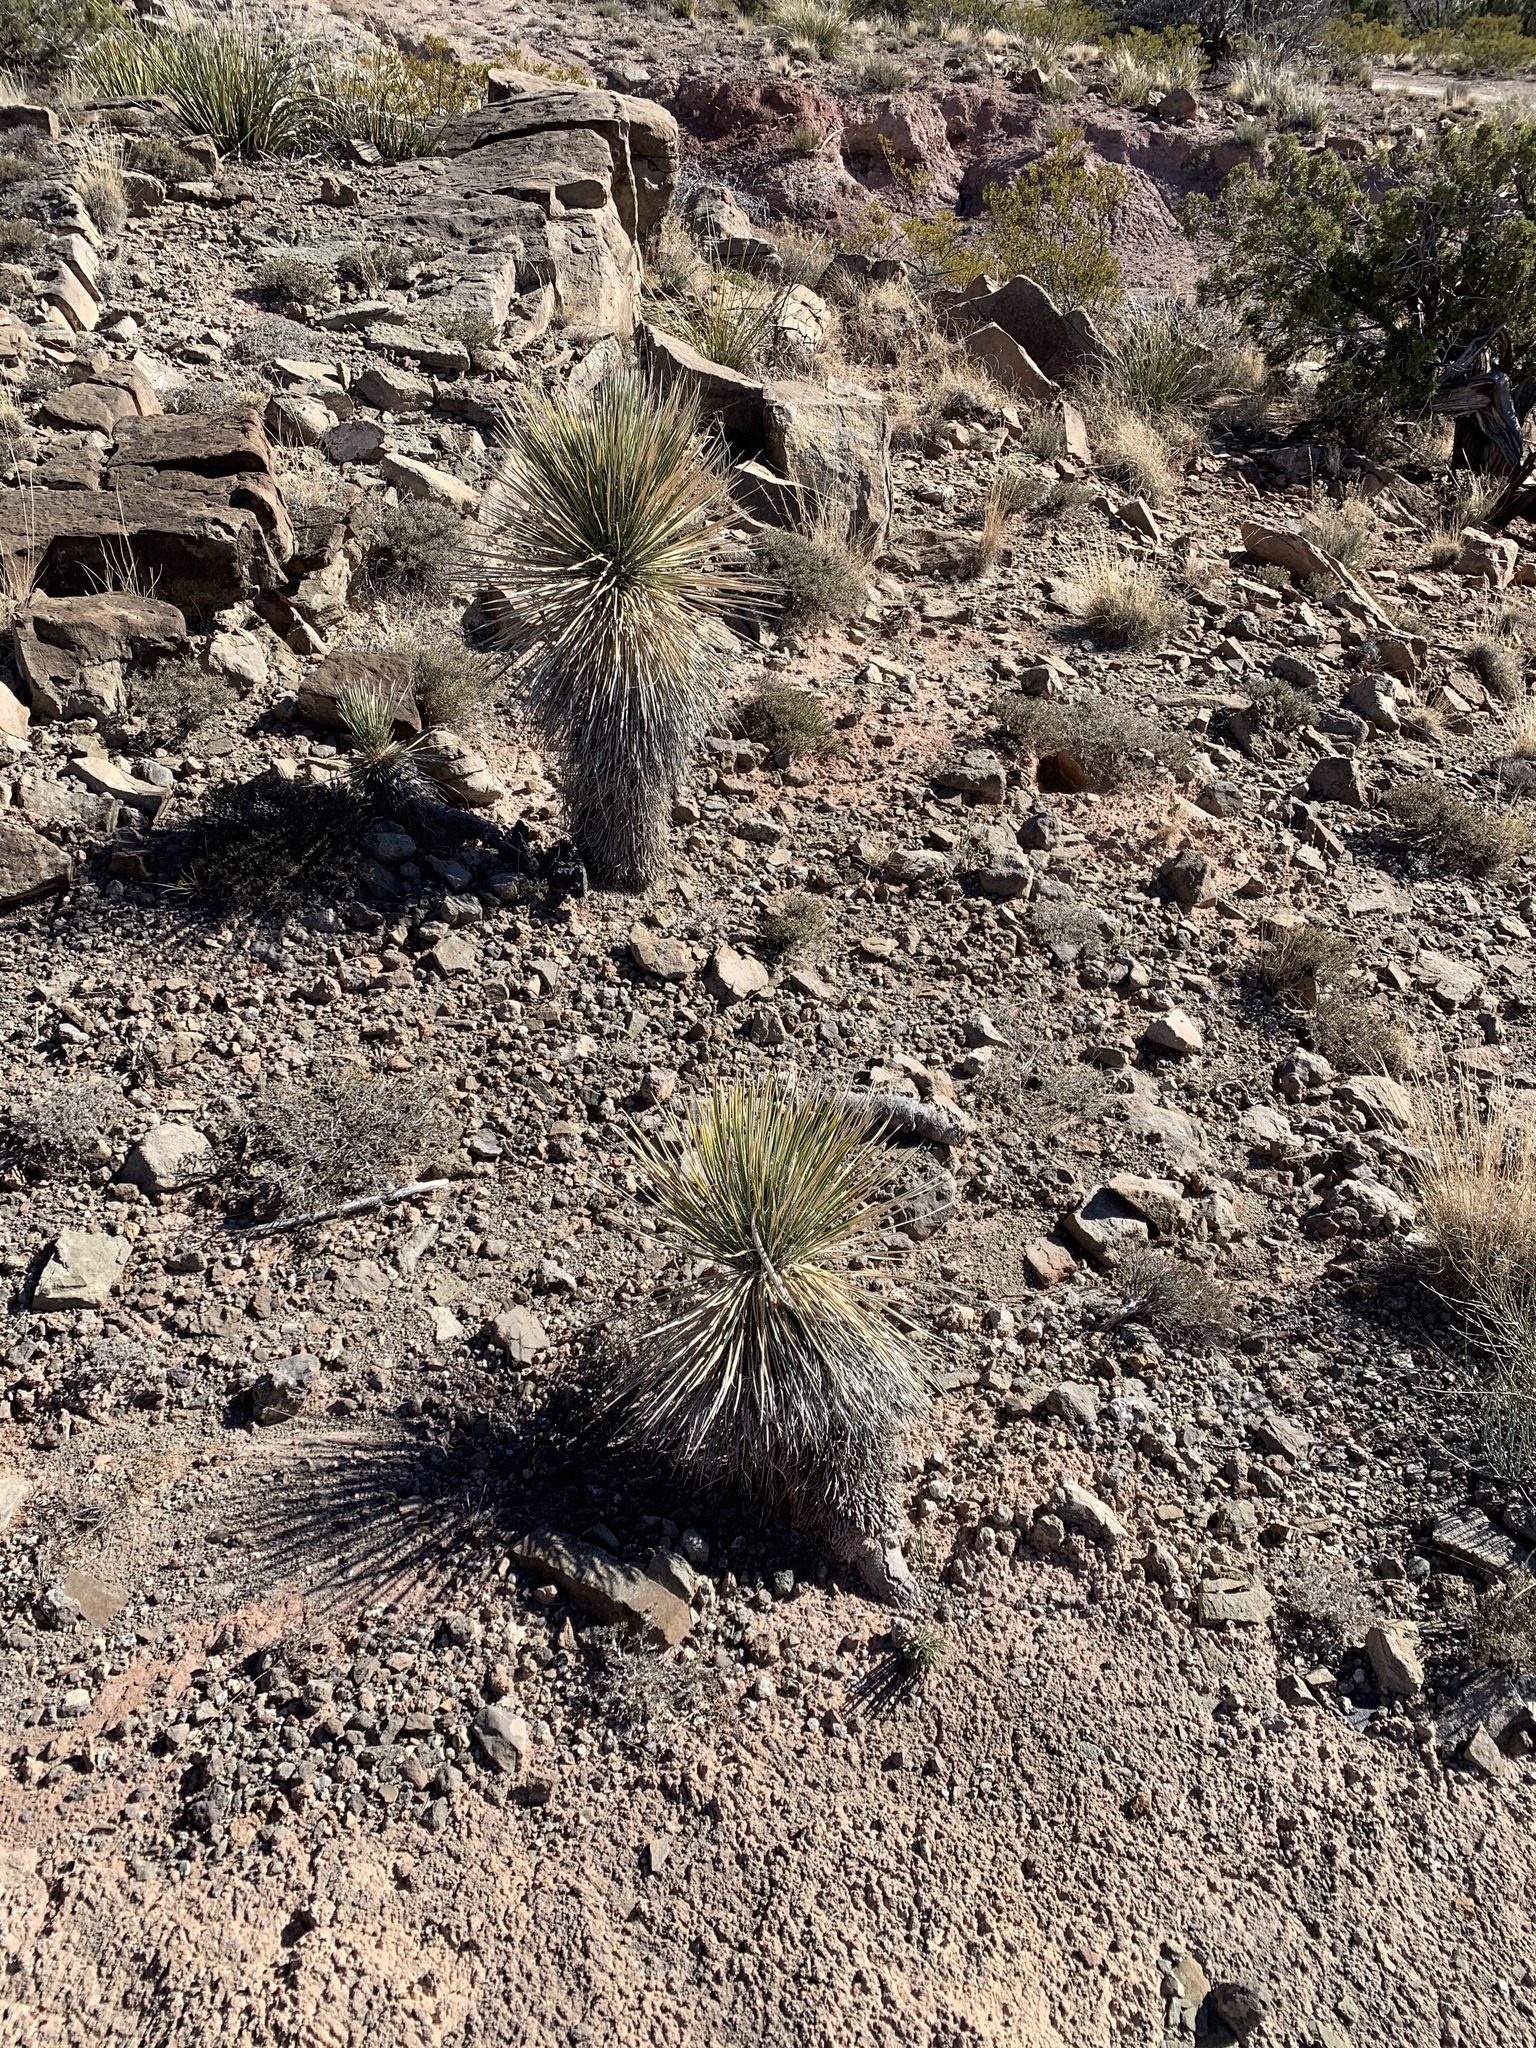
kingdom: Plantae
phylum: Tracheophyta
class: Liliopsida
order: Asparagales
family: Asparagaceae
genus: Yucca
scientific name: Yucca elata
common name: Palmella
